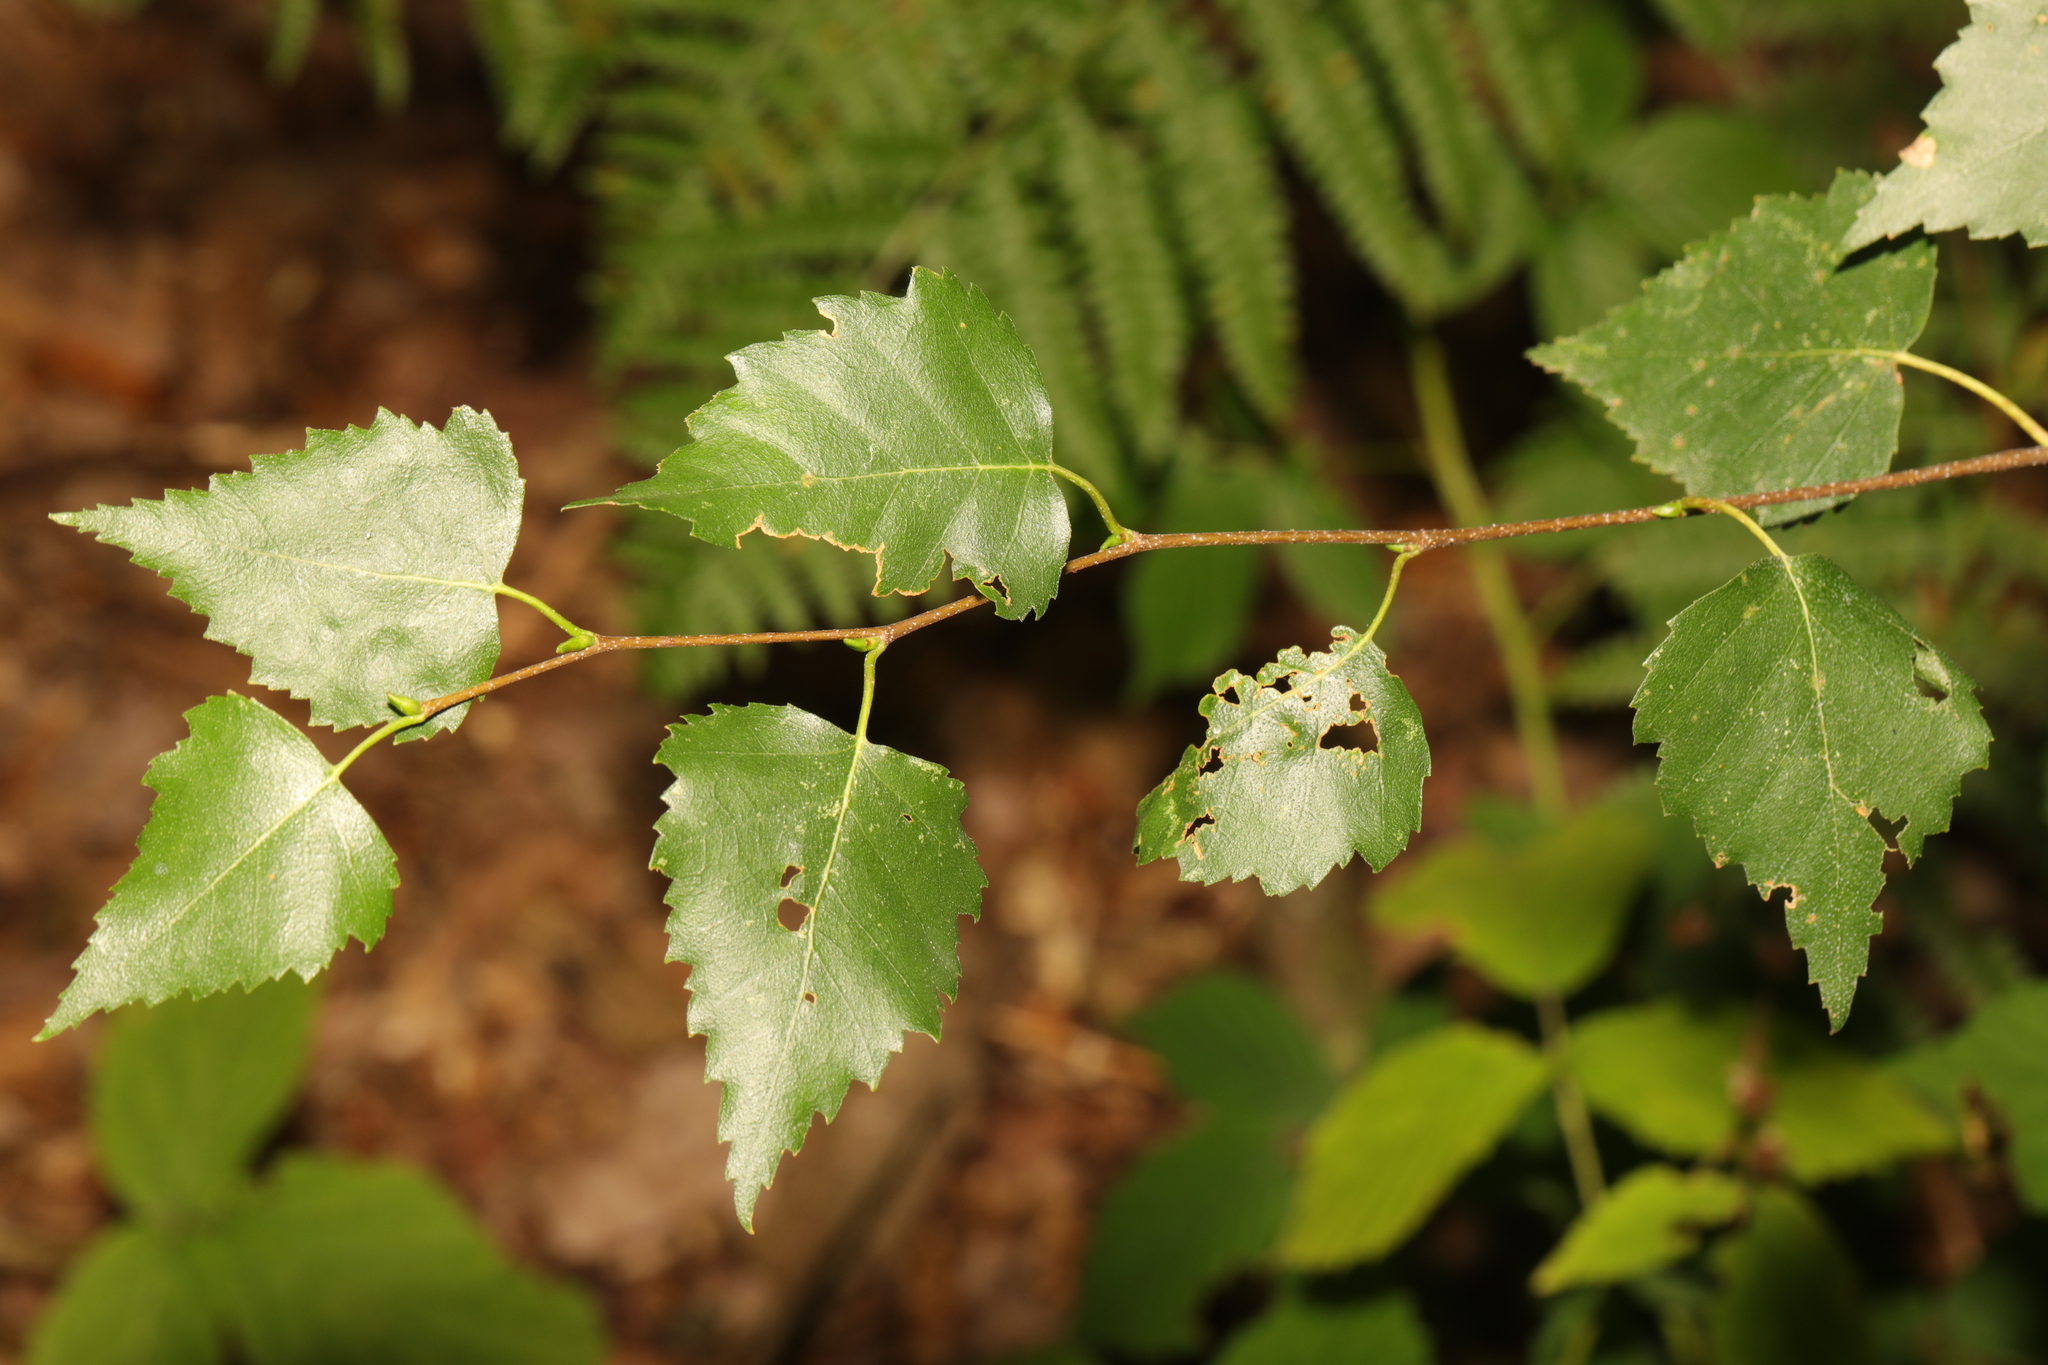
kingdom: Plantae
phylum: Tracheophyta
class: Magnoliopsida
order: Fagales
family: Betulaceae
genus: Betula
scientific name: Betula pendula
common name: Silver birch
